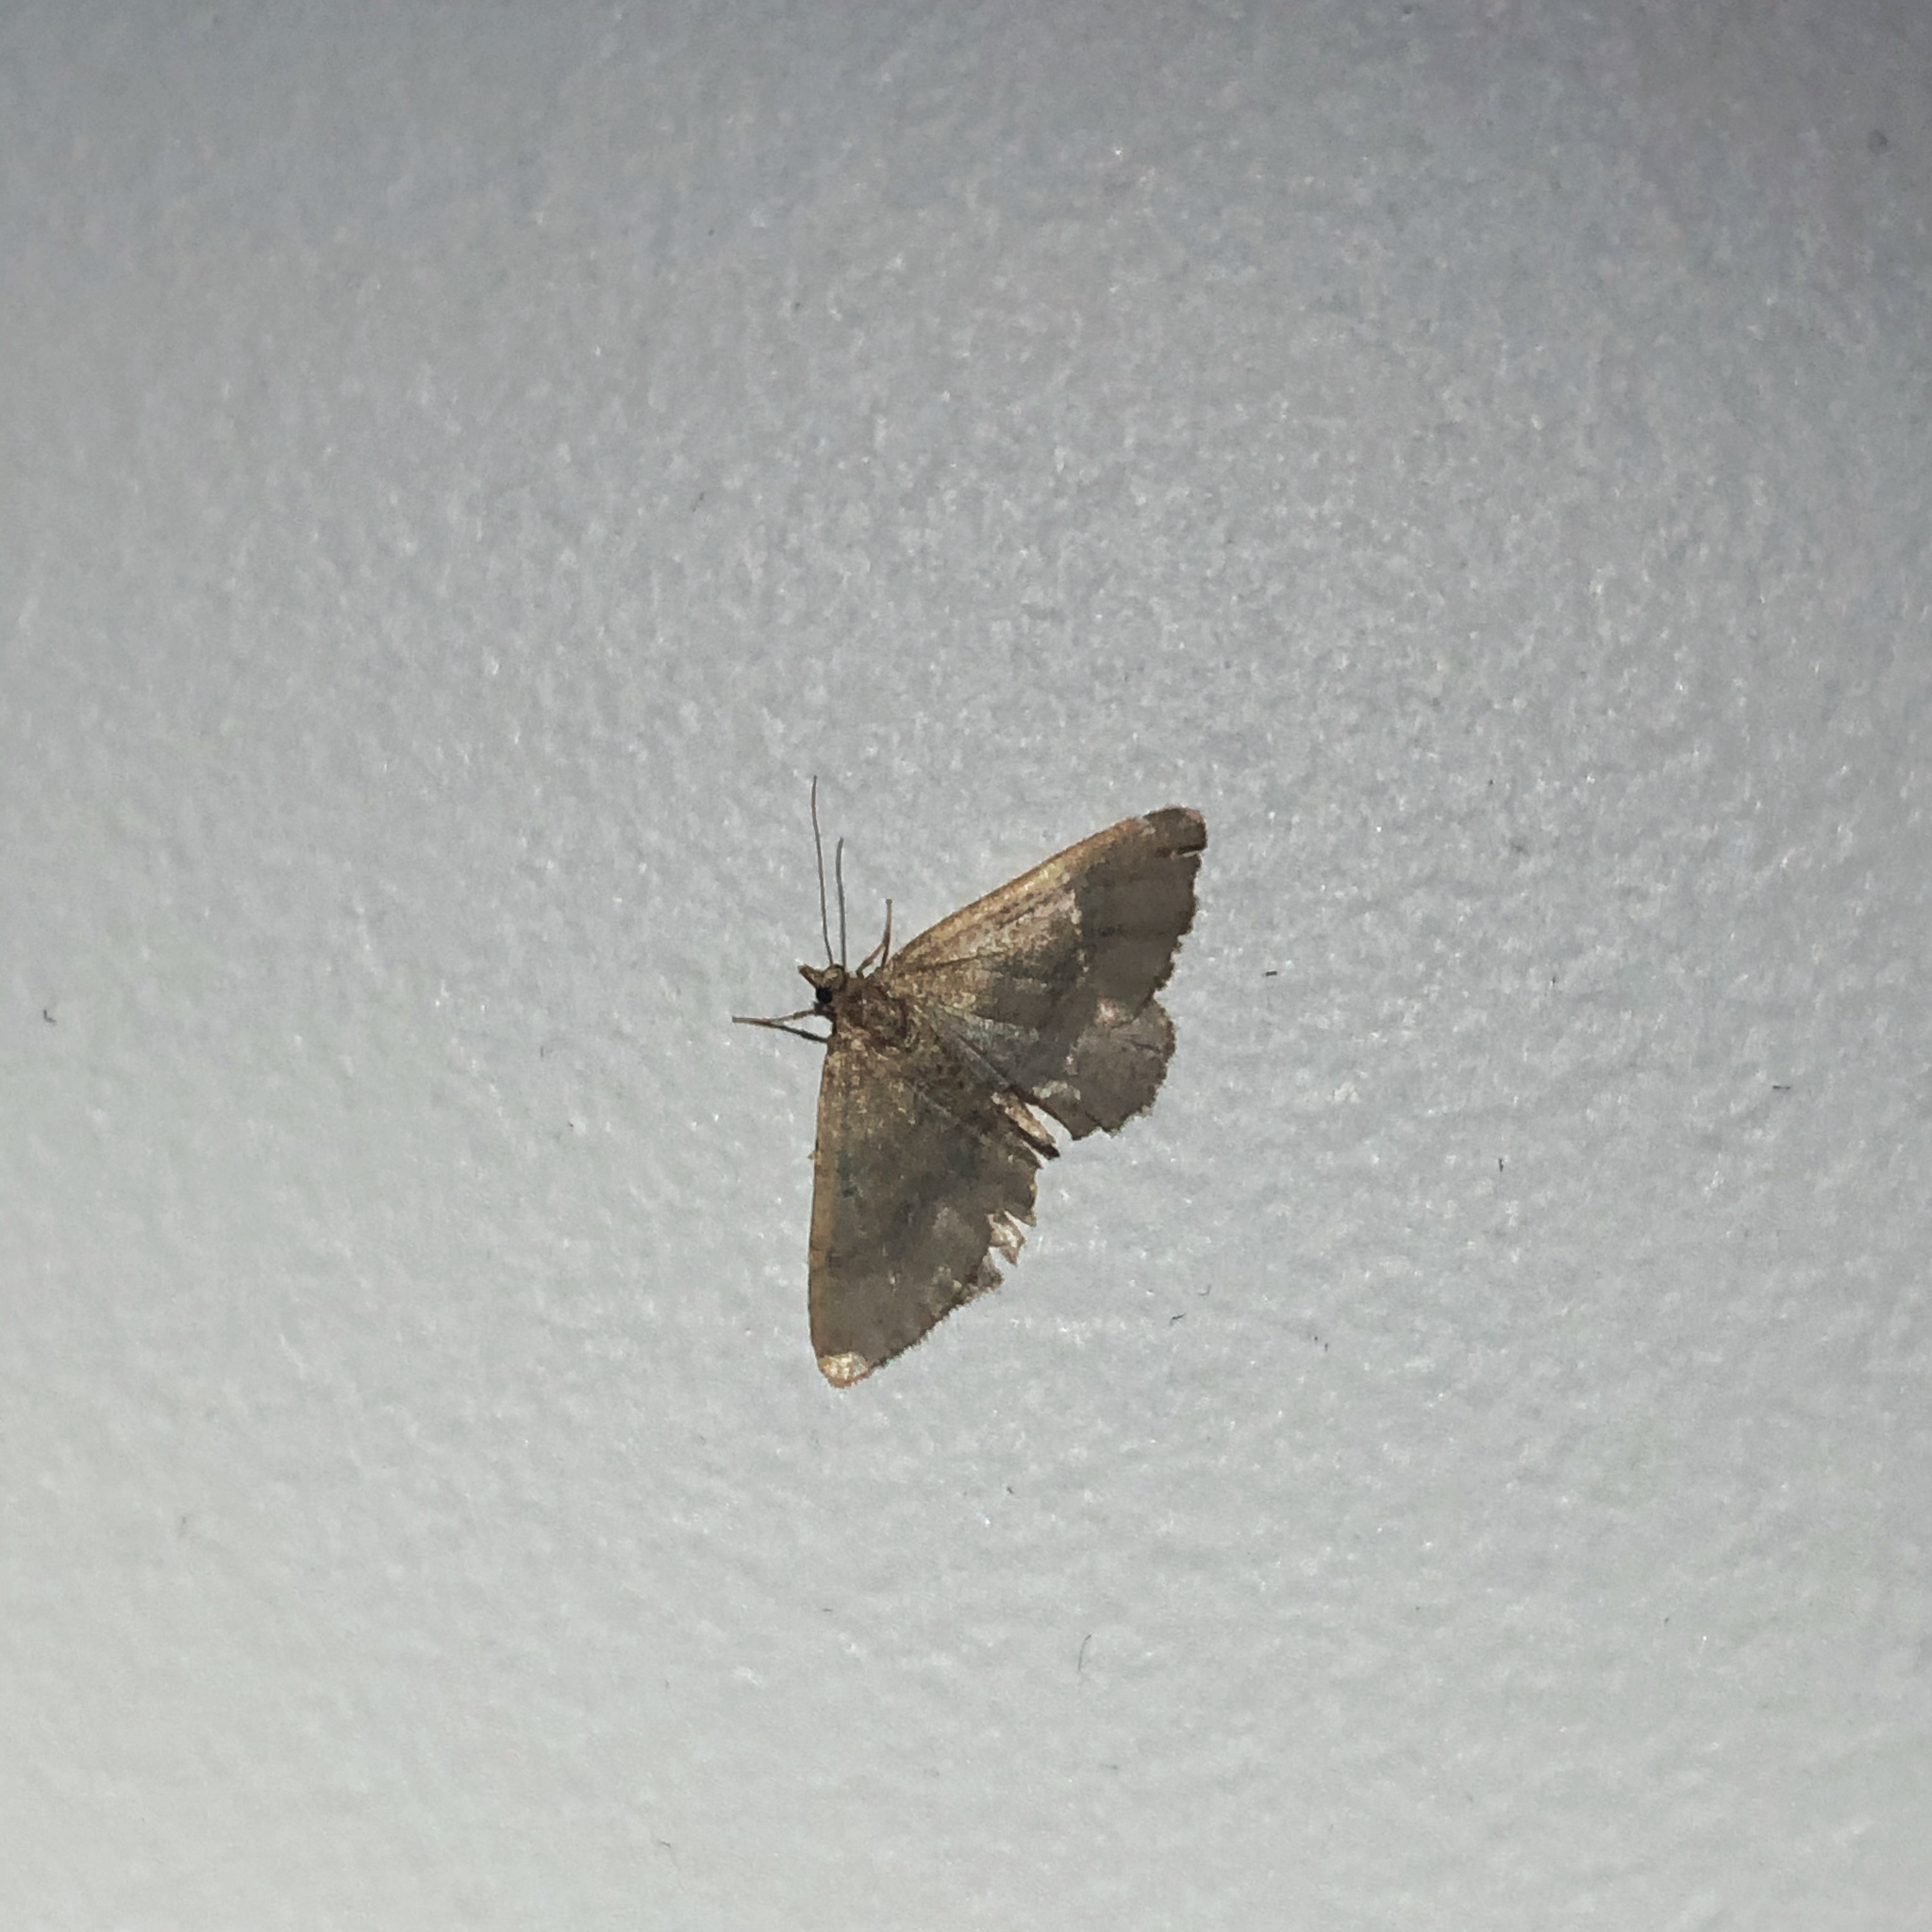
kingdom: Animalia
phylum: Arthropoda
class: Insecta
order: Lepidoptera
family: Geometridae
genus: Epyaxa
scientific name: Epyaxa rosearia
